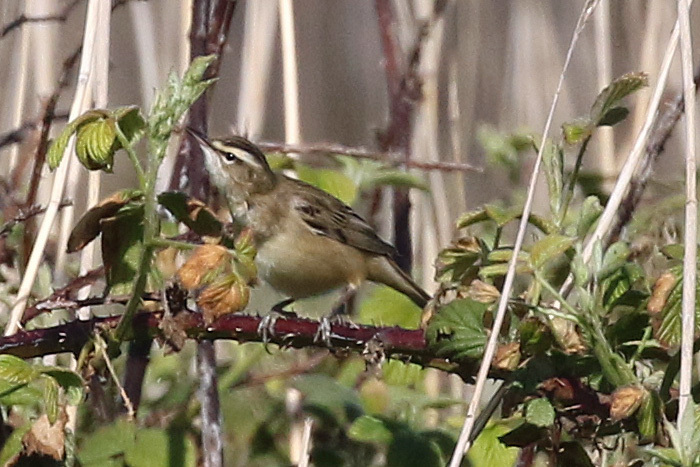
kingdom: Animalia
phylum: Chordata
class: Aves
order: Passeriformes
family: Acrocephalidae
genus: Acrocephalus
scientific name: Acrocephalus schoenobaenus
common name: Sedge warbler
